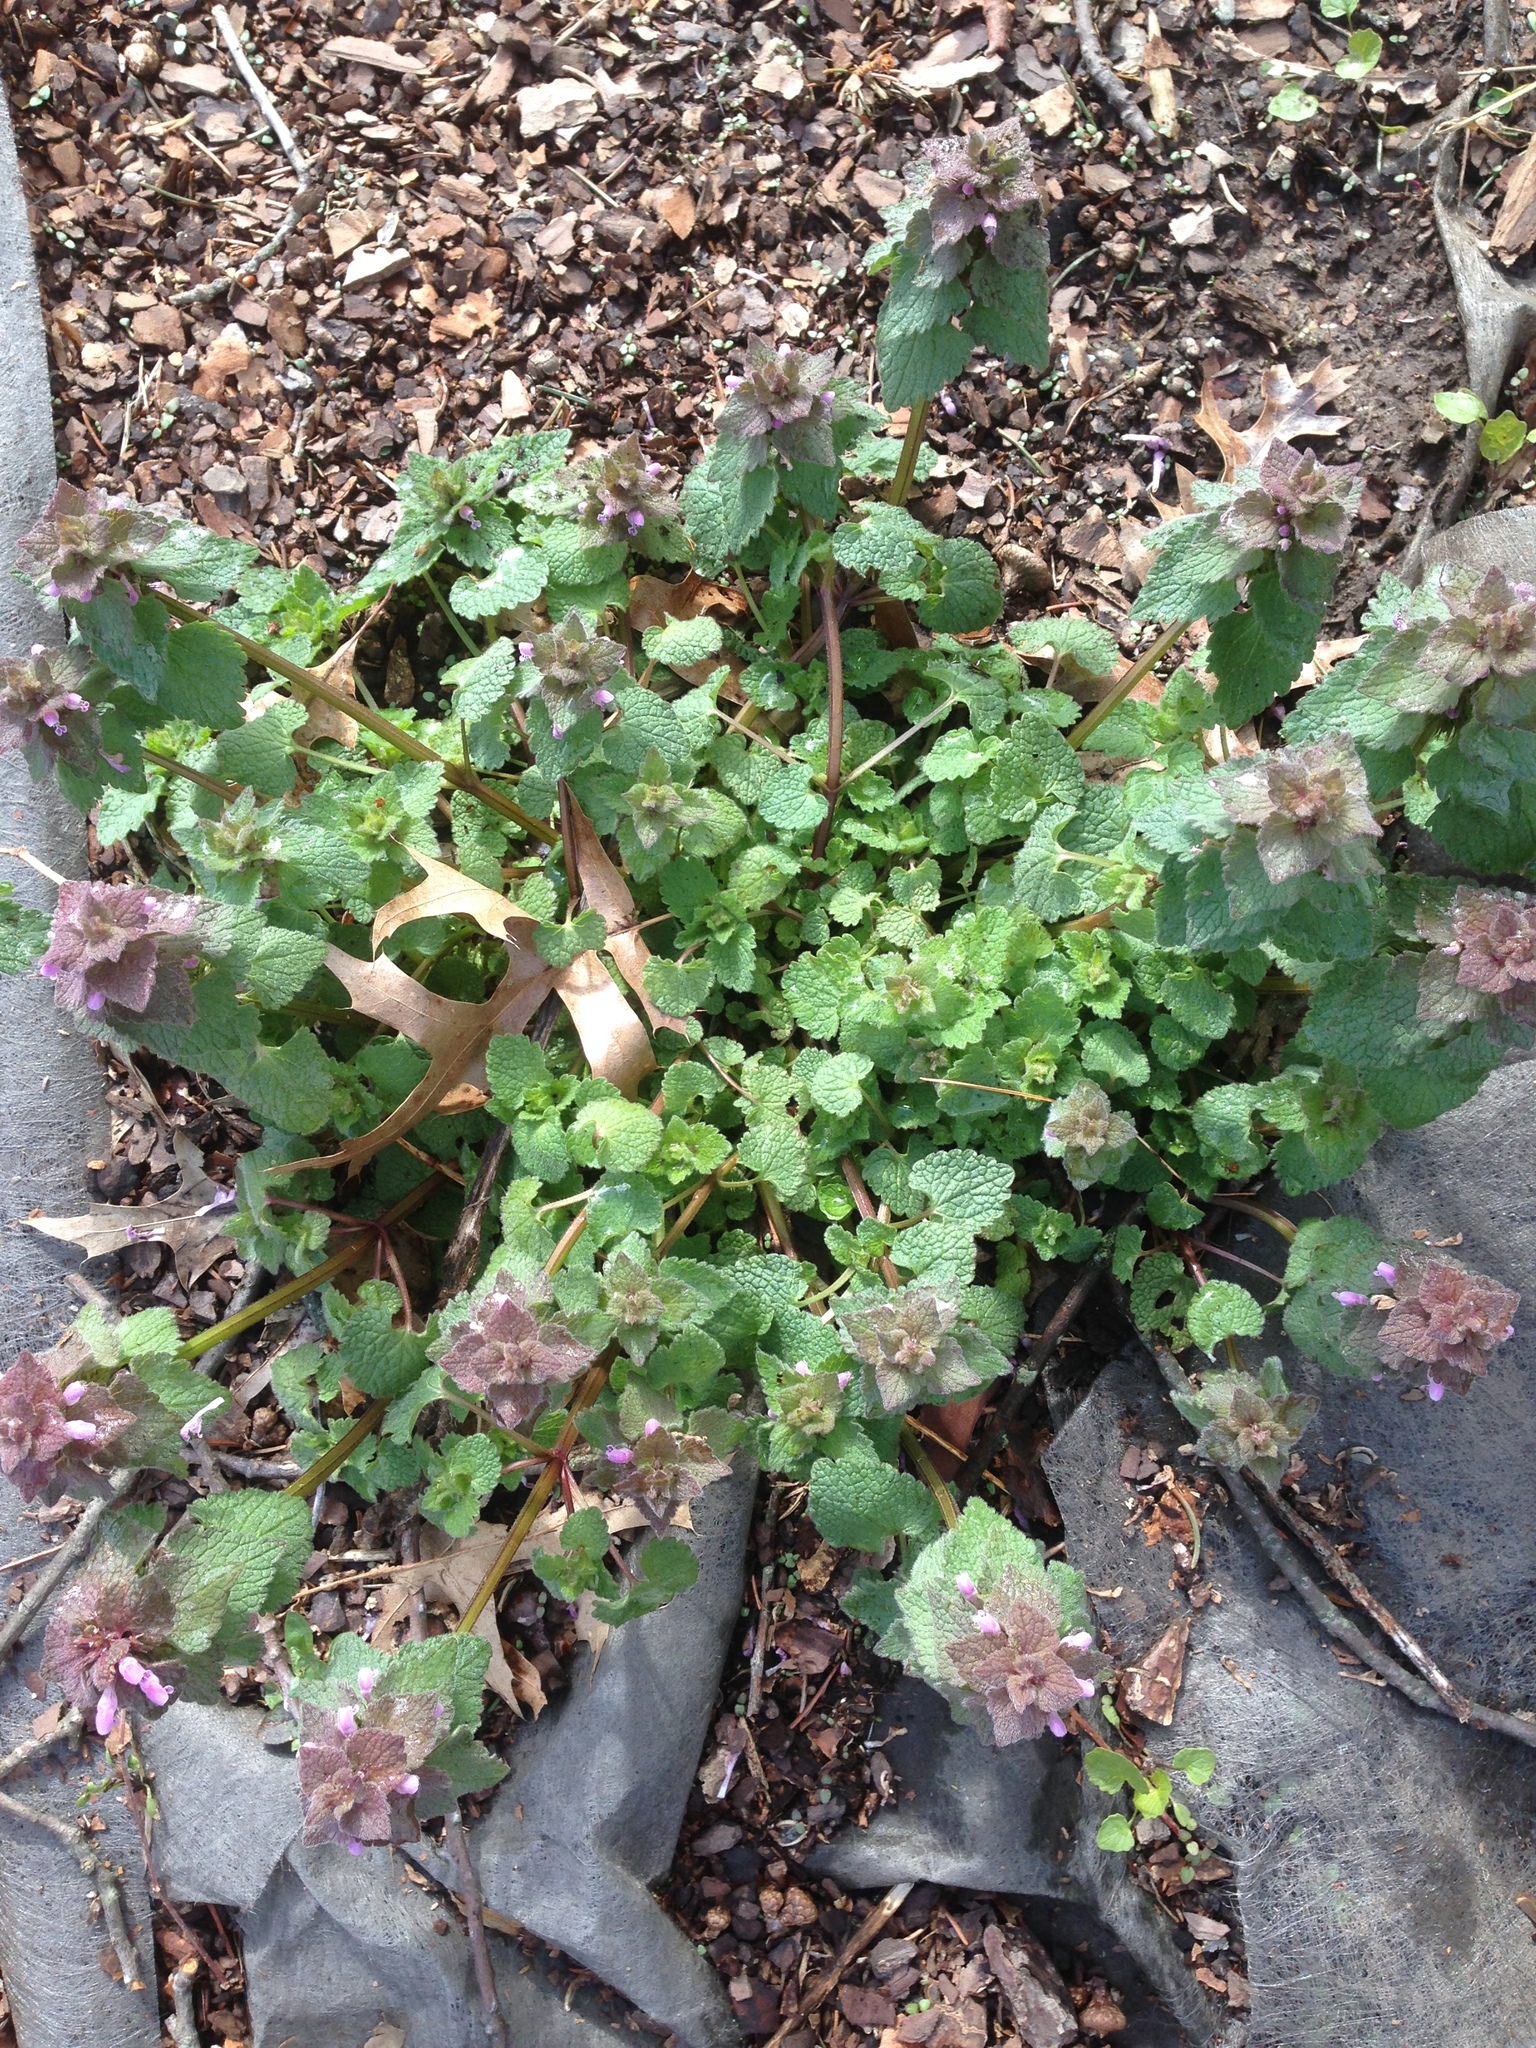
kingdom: Plantae
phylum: Tracheophyta
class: Magnoliopsida
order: Lamiales
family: Lamiaceae
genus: Lamium
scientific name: Lamium purpureum
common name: Red dead-nettle
